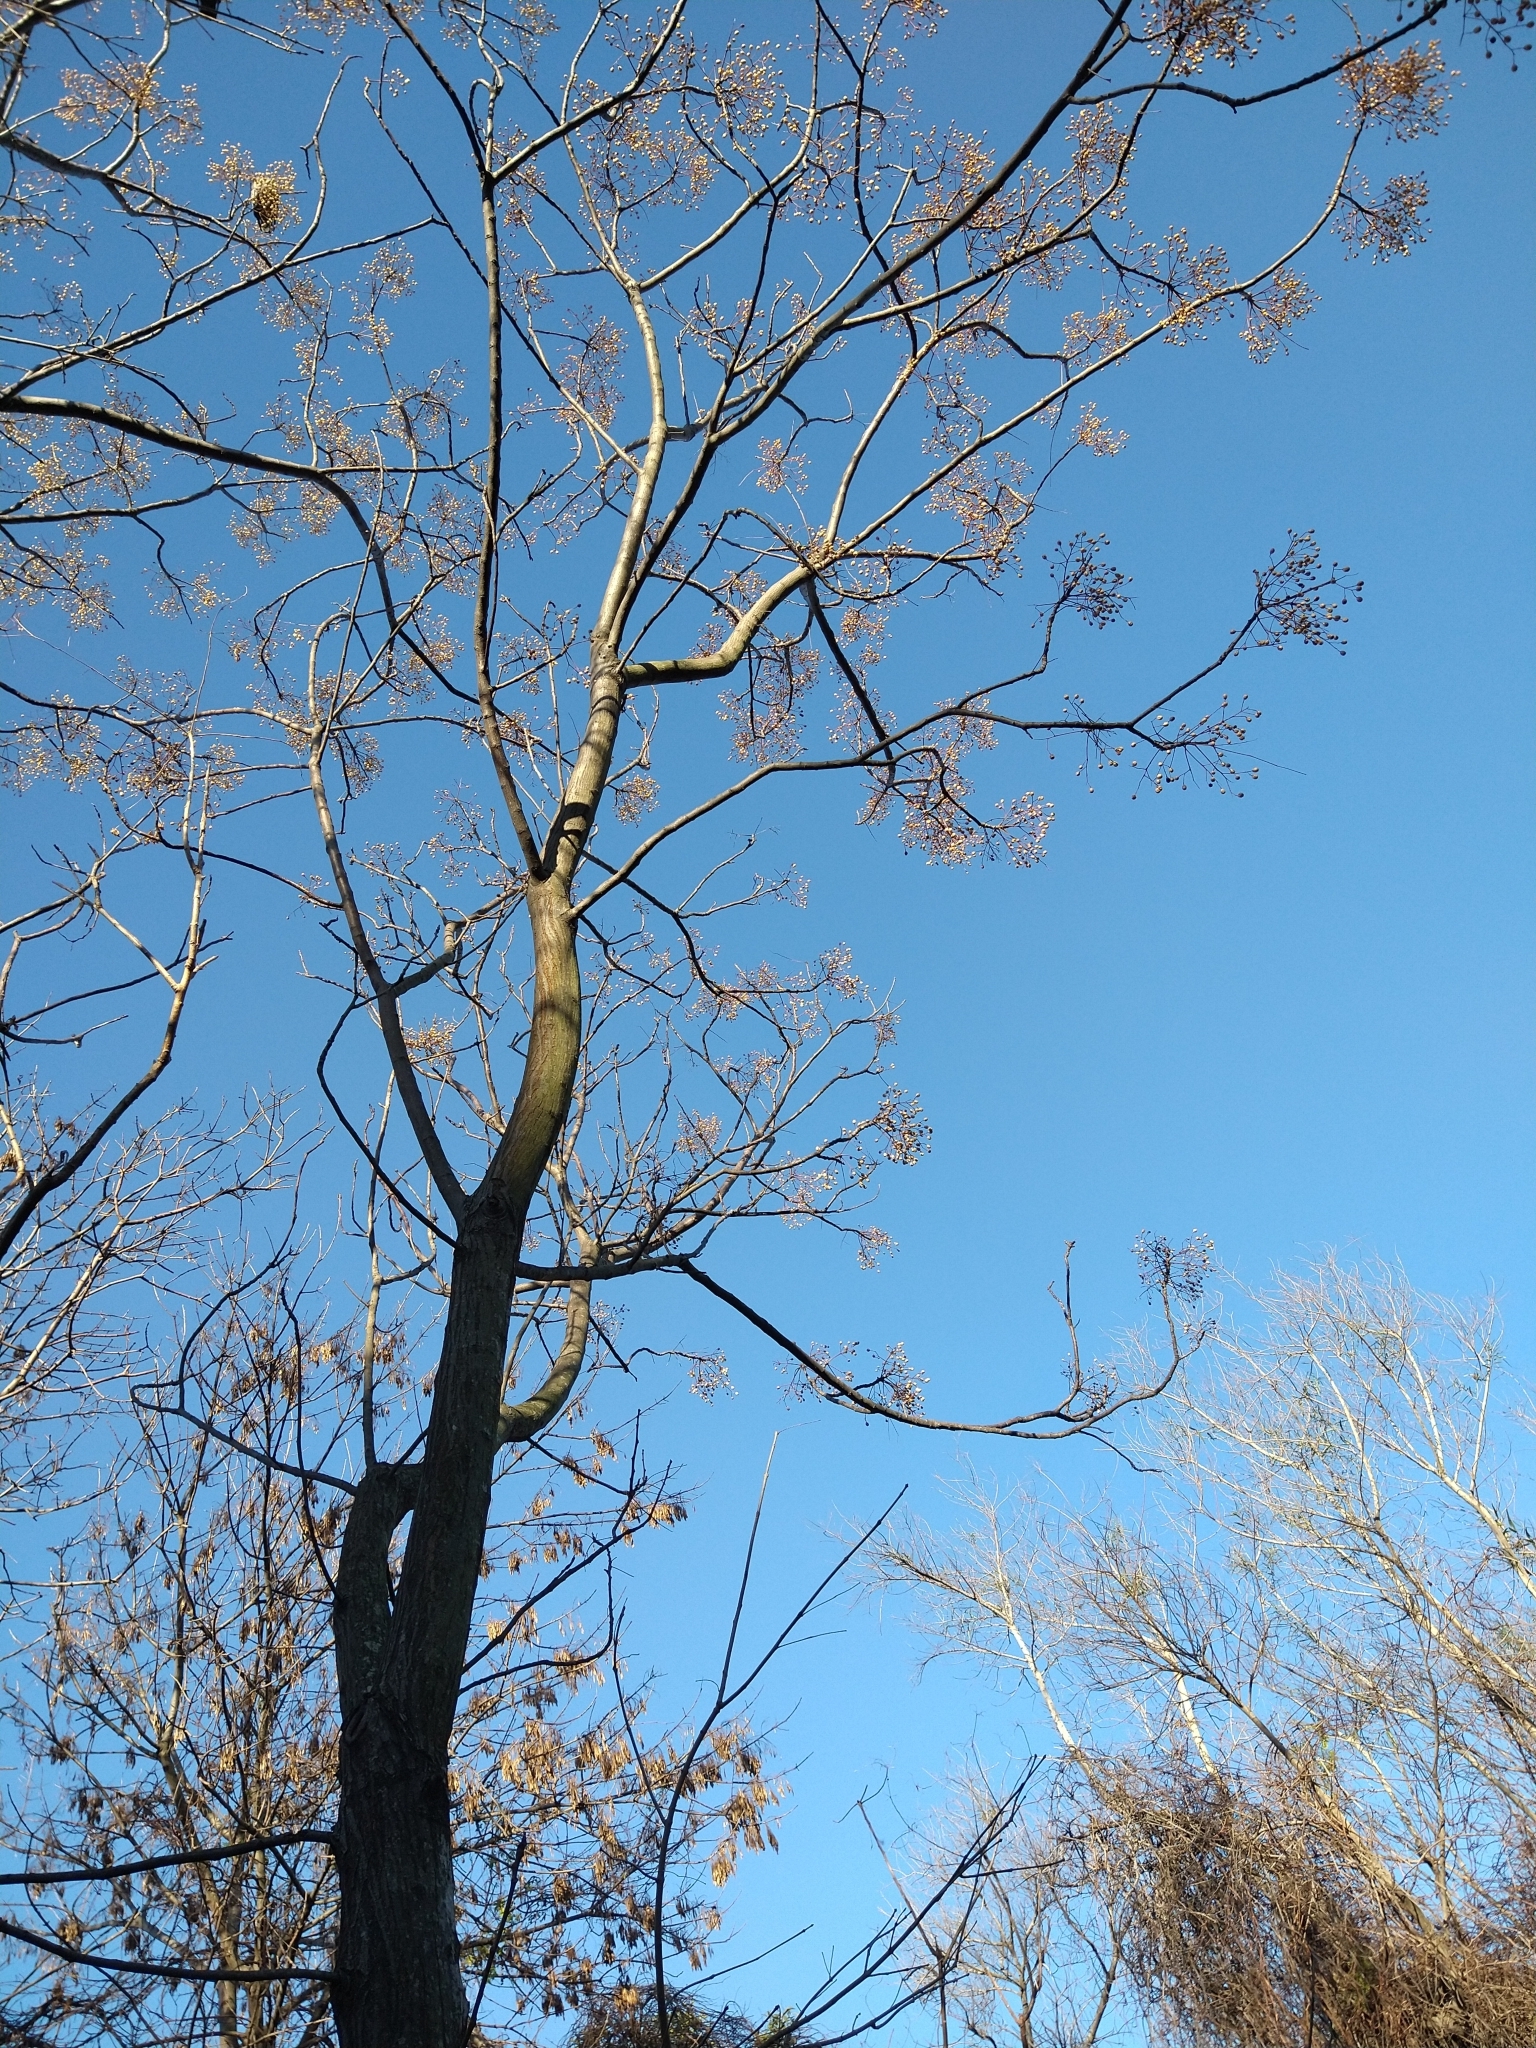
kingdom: Plantae
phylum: Tracheophyta
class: Magnoliopsida
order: Sapindales
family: Meliaceae
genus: Melia
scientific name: Melia azedarach
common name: Chinaberrytree
